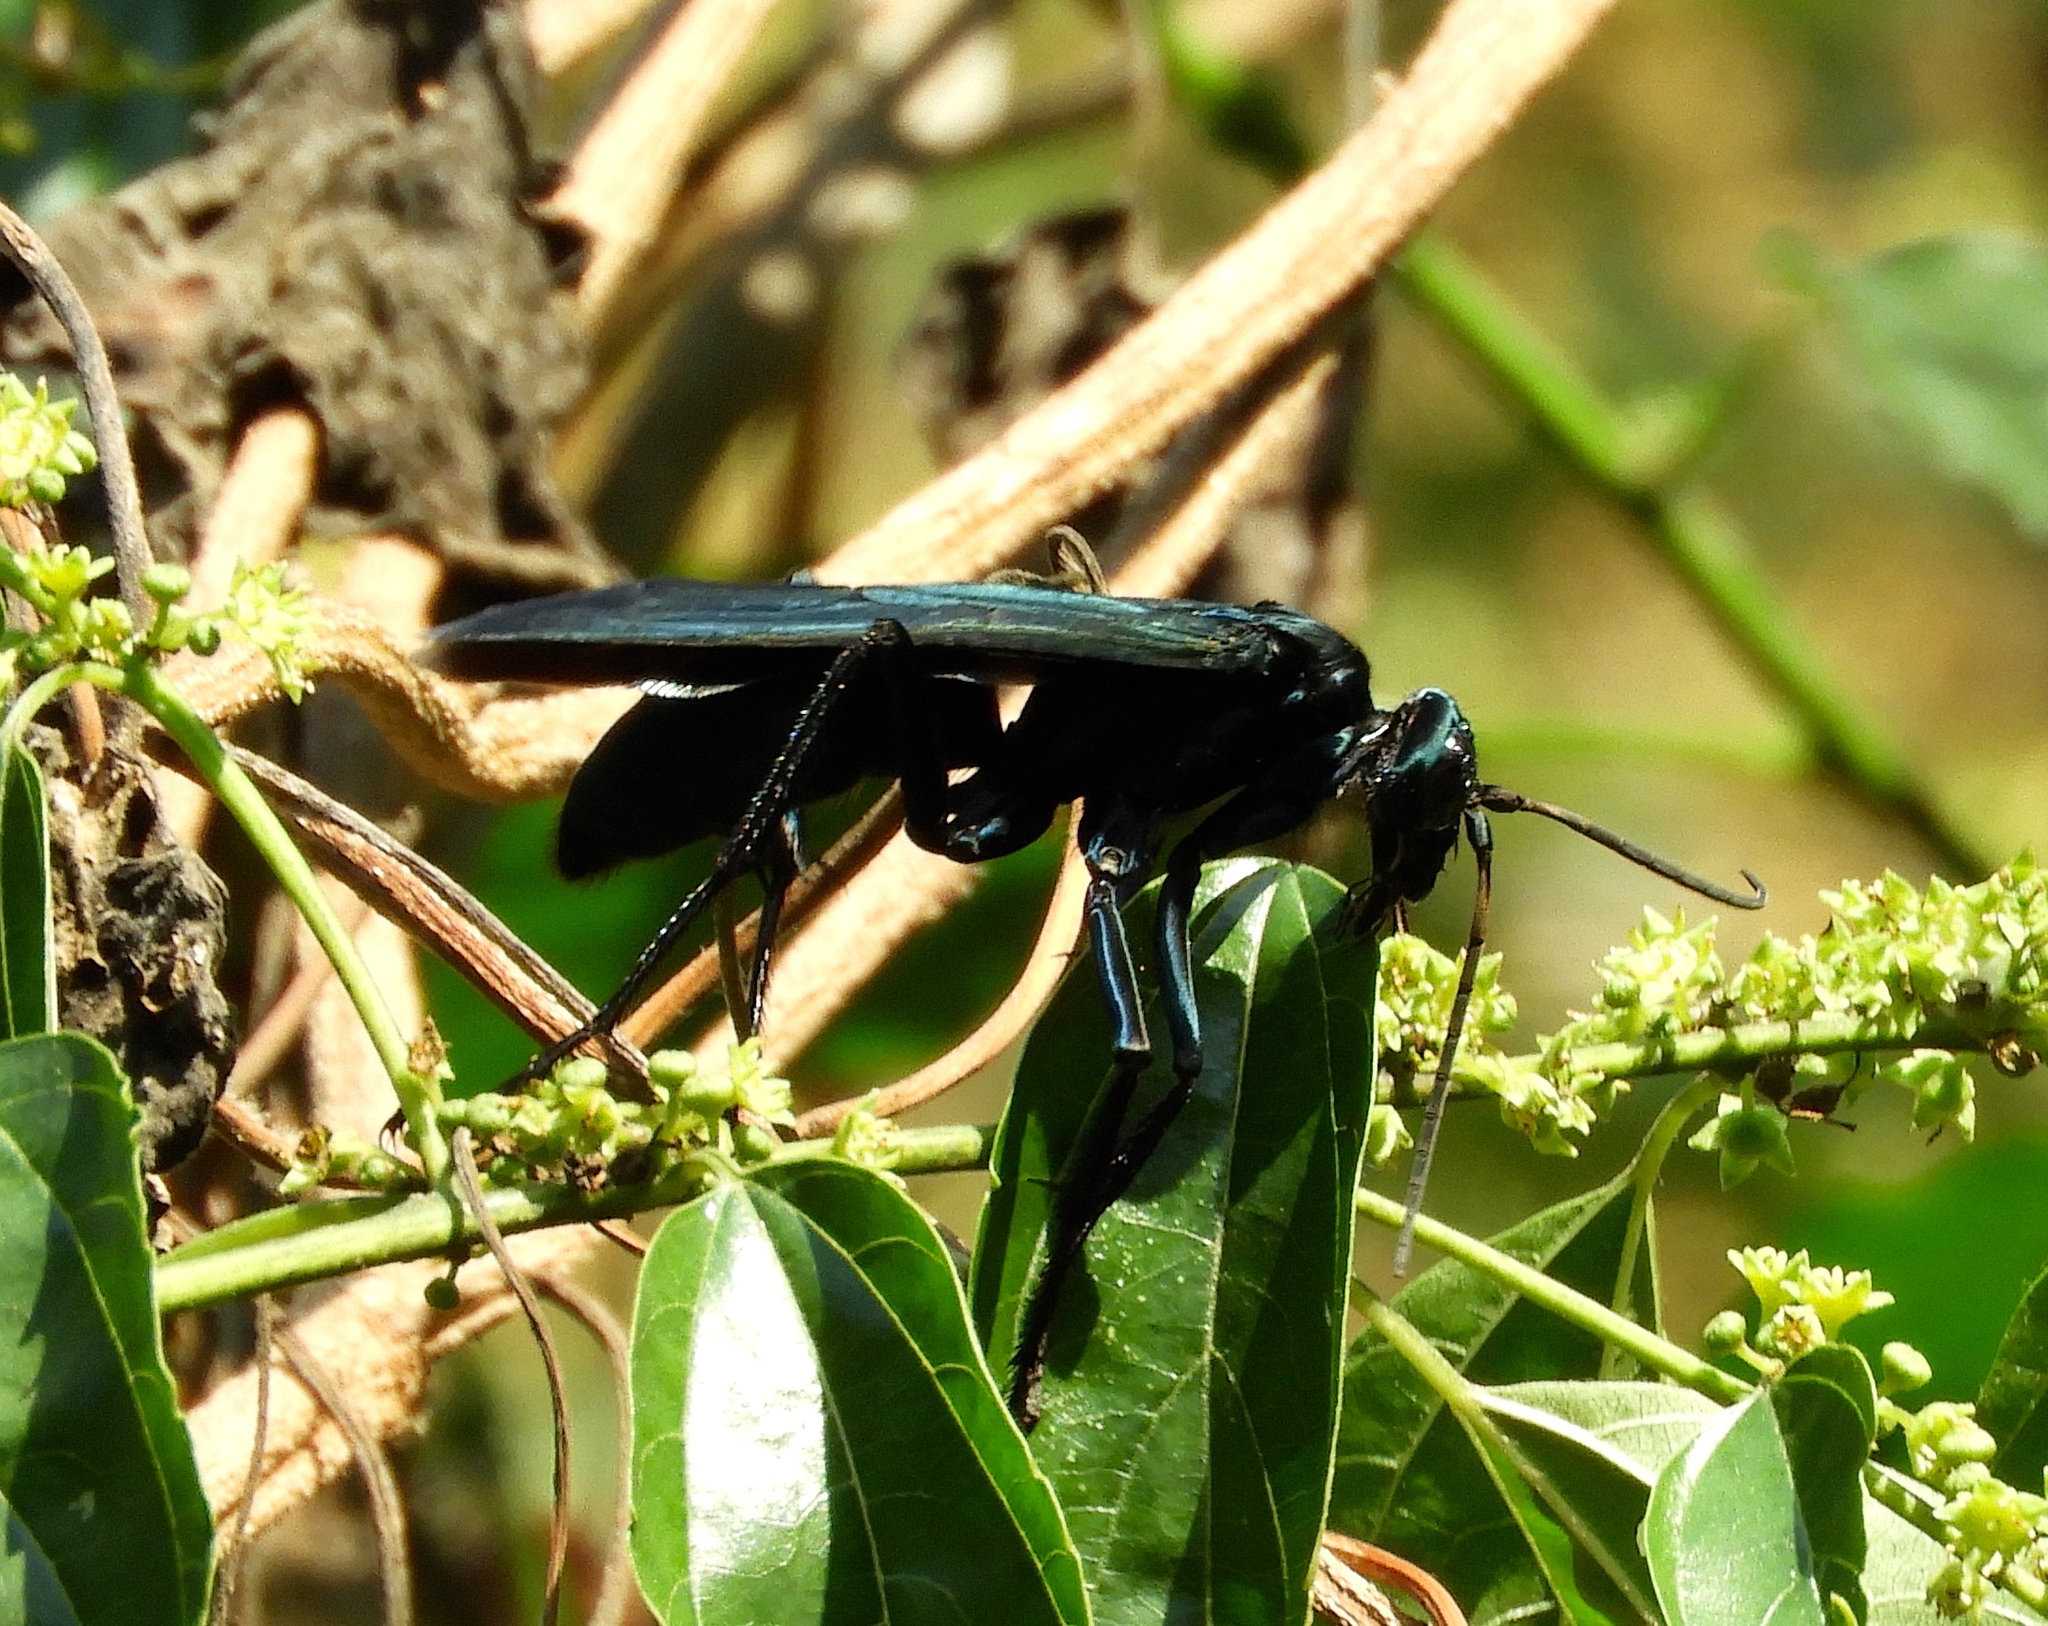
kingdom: Animalia
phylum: Arthropoda
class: Insecta
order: Hymenoptera
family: Pompilidae
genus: Pepsis
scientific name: Pepsis mexicana
